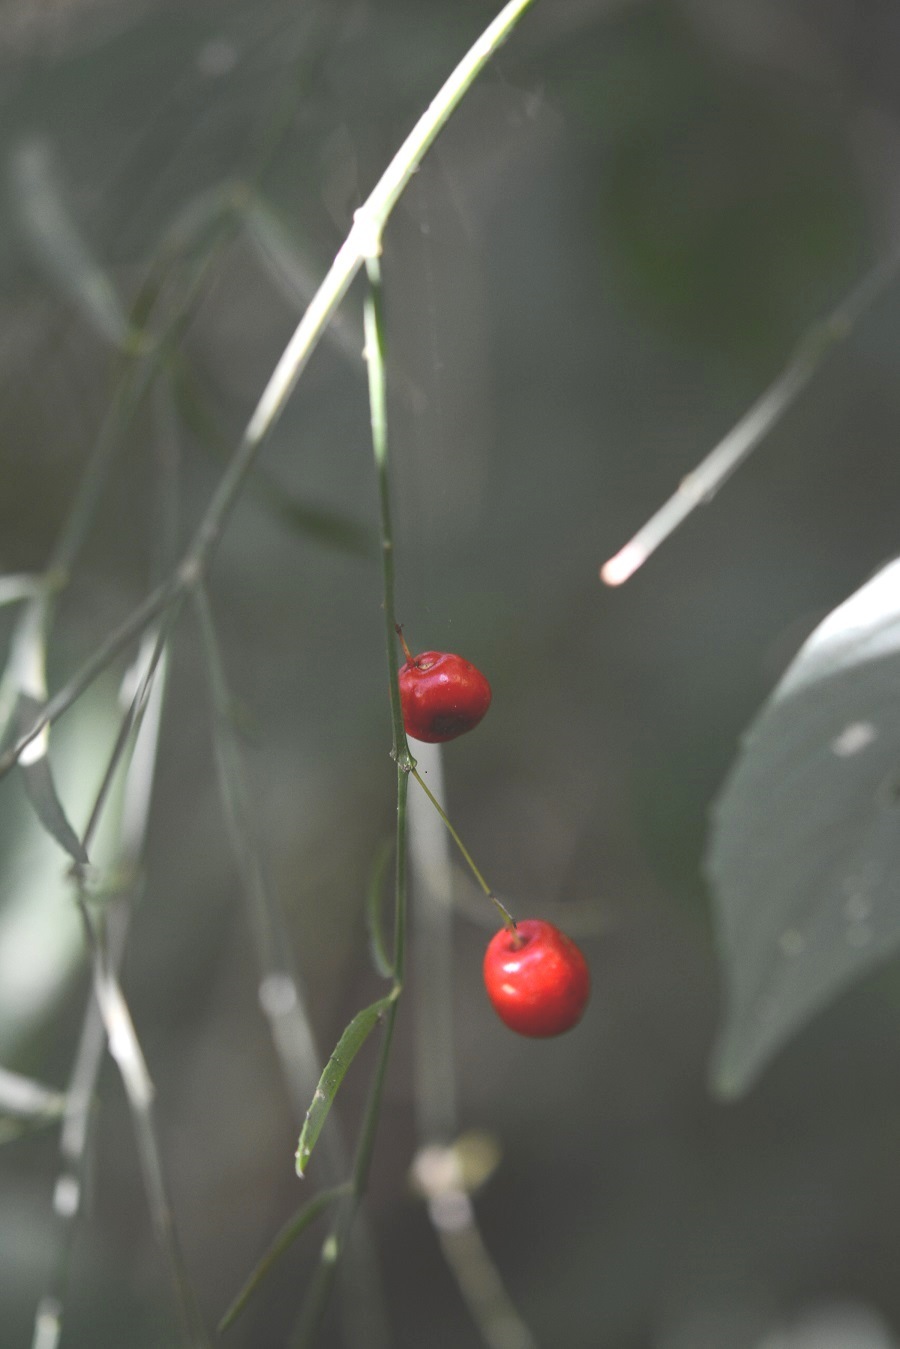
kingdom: Plantae
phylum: Tracheophyta
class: Magnoliopsida
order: Celastrales
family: Celastraceae
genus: Crossopetalum
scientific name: Crossopetalum uragoga
